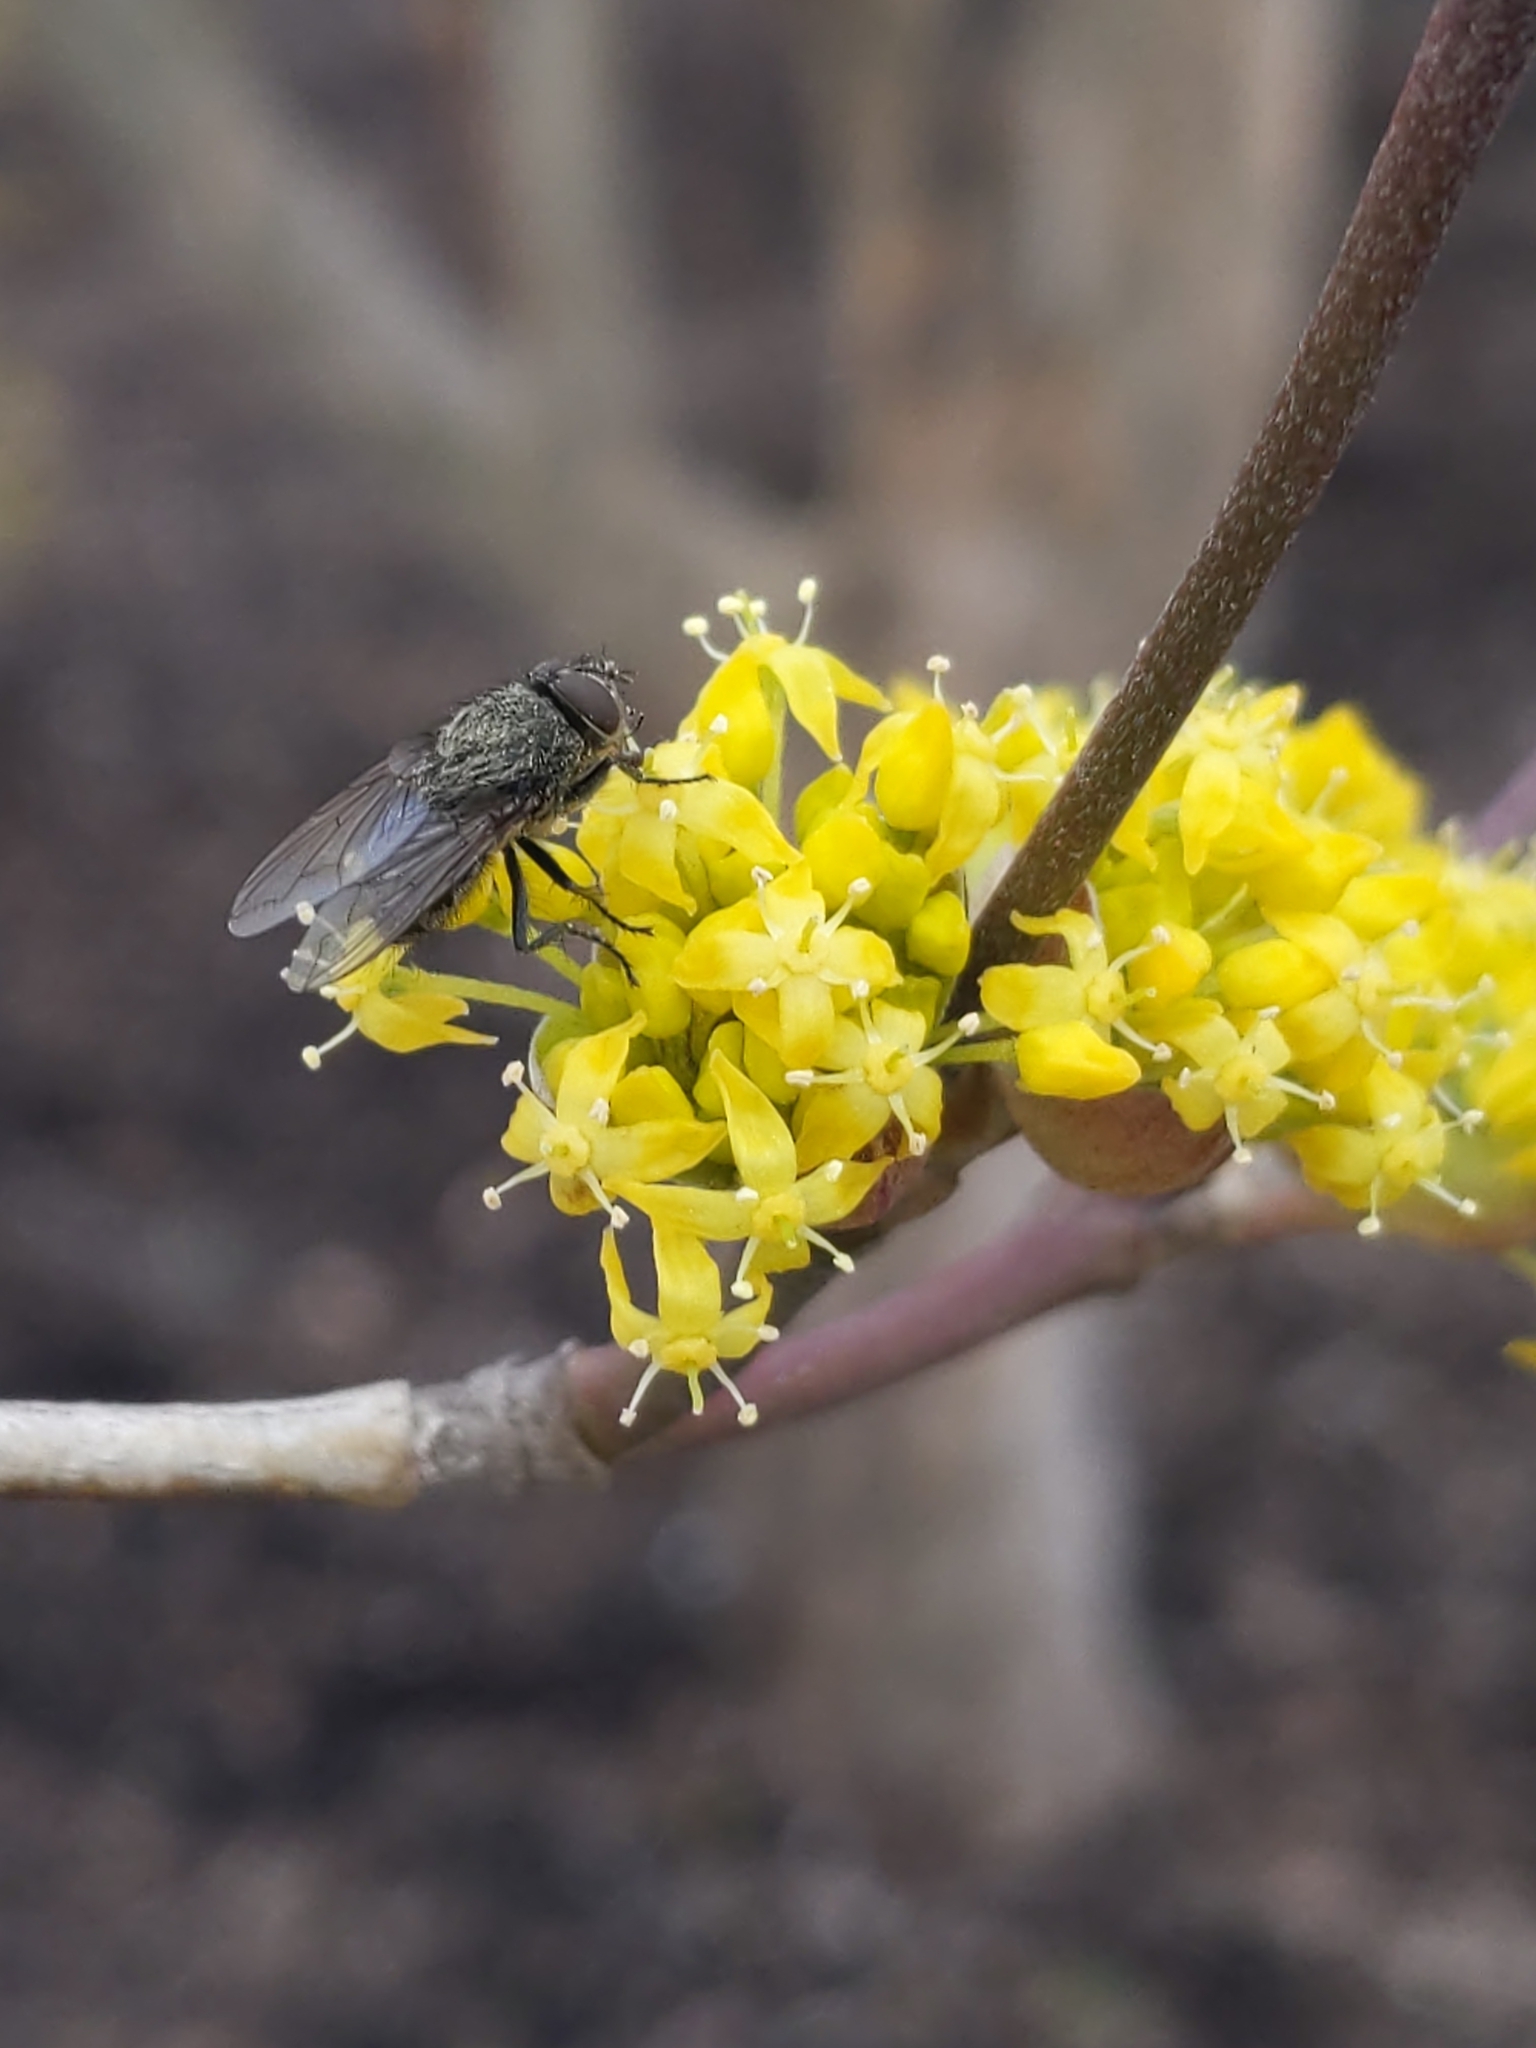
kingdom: Animalia
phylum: Arthropoda
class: Insecta
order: Diptera
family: Polleniidae
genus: Pollenia
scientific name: Pollenia
